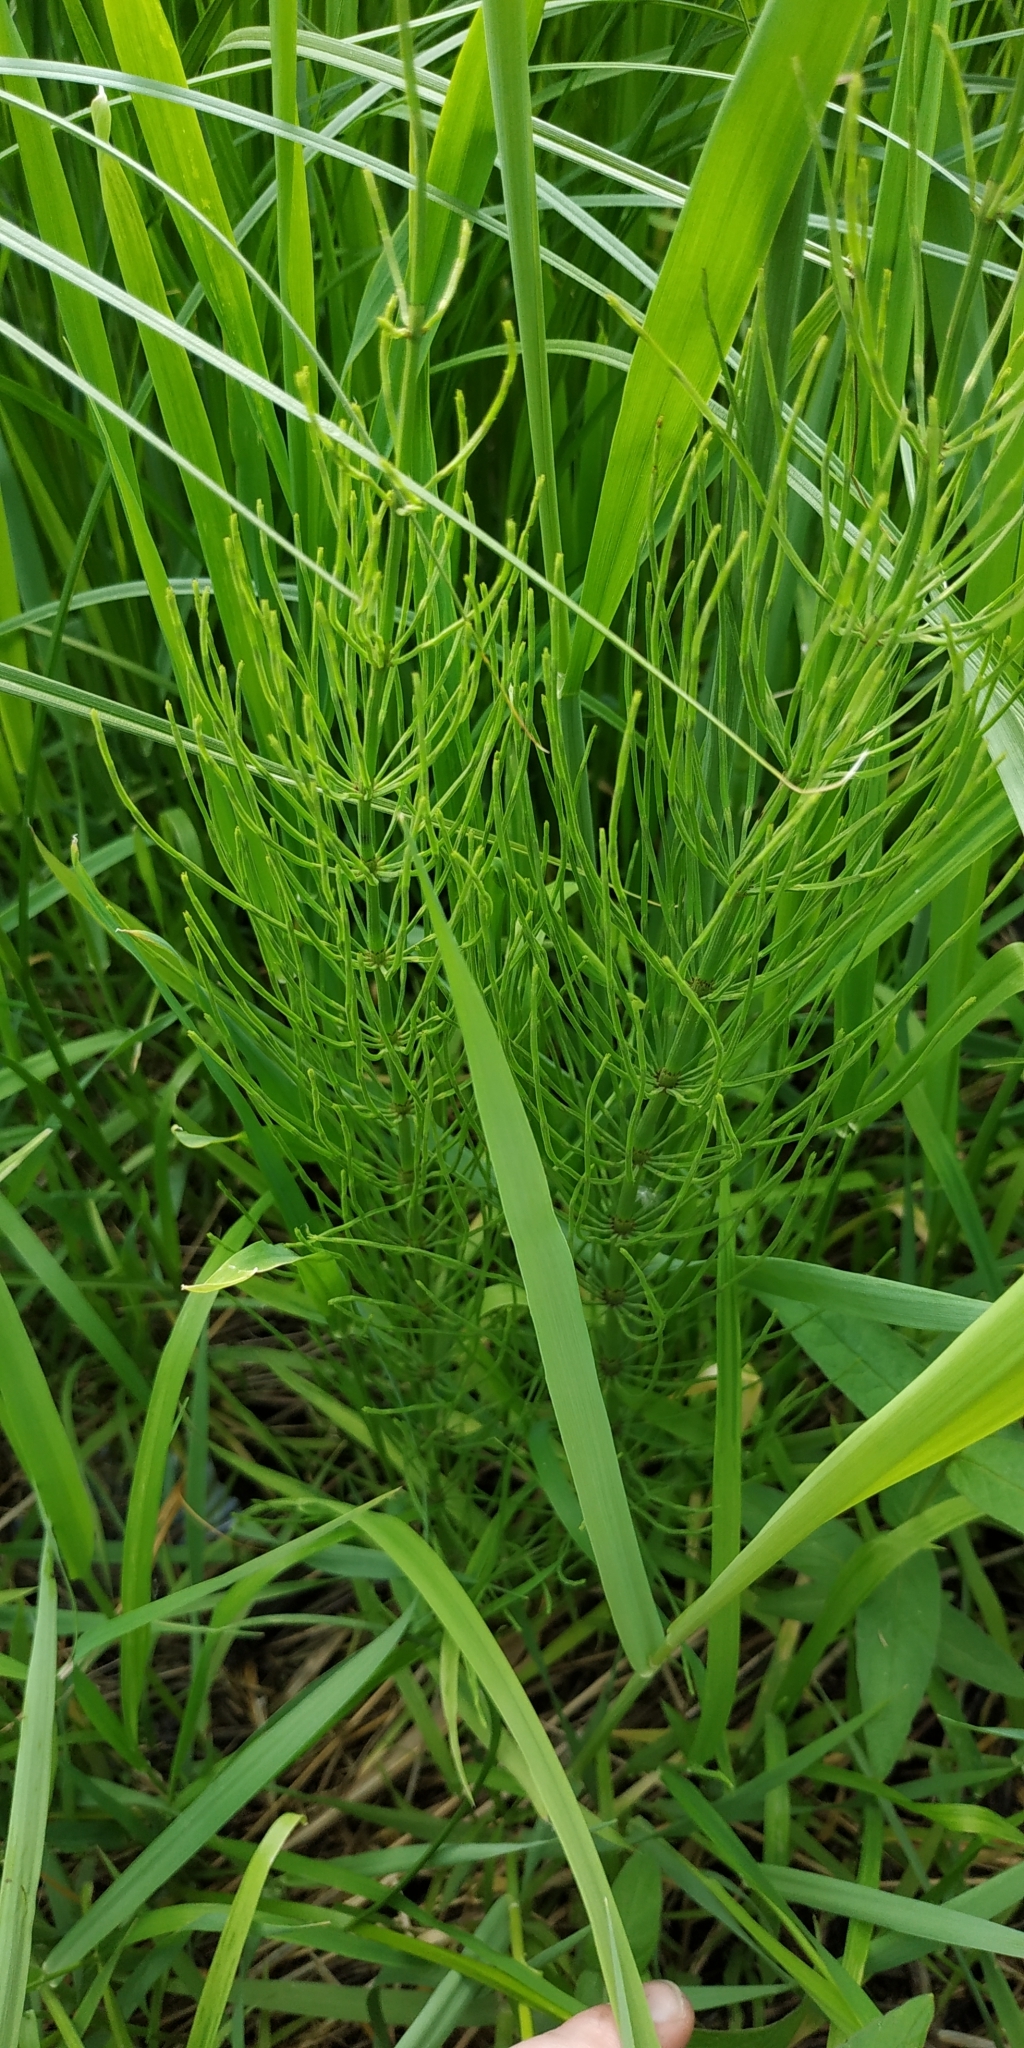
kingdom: Plantae
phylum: Tracheophyta
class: Polypodiopsida
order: Equisetales
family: Equisetaceae
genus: Equisetum
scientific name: Equisetum arvense
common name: Field horsetail
